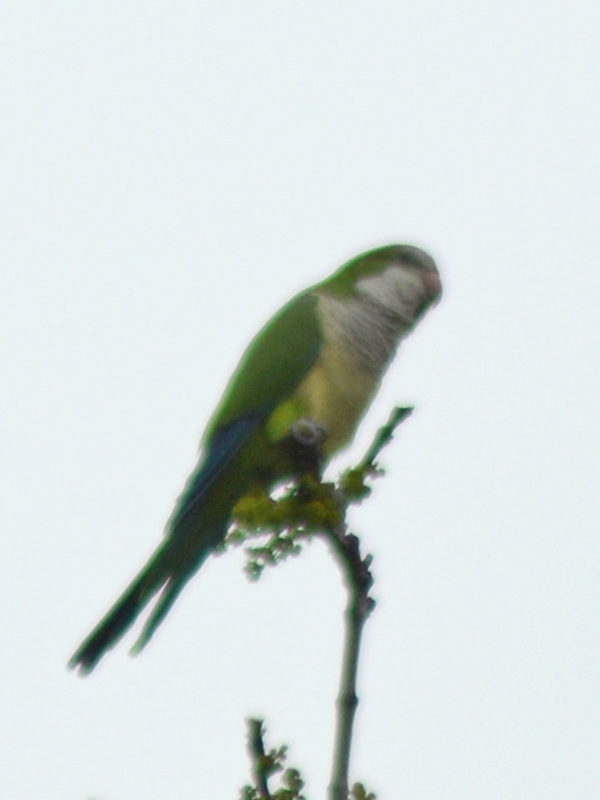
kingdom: Animalia
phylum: Chordata
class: Aves
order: Psittaciformes
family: Psittacidae
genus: Myiopsitta
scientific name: Myiopsitta monachus
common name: Monk parakeet
